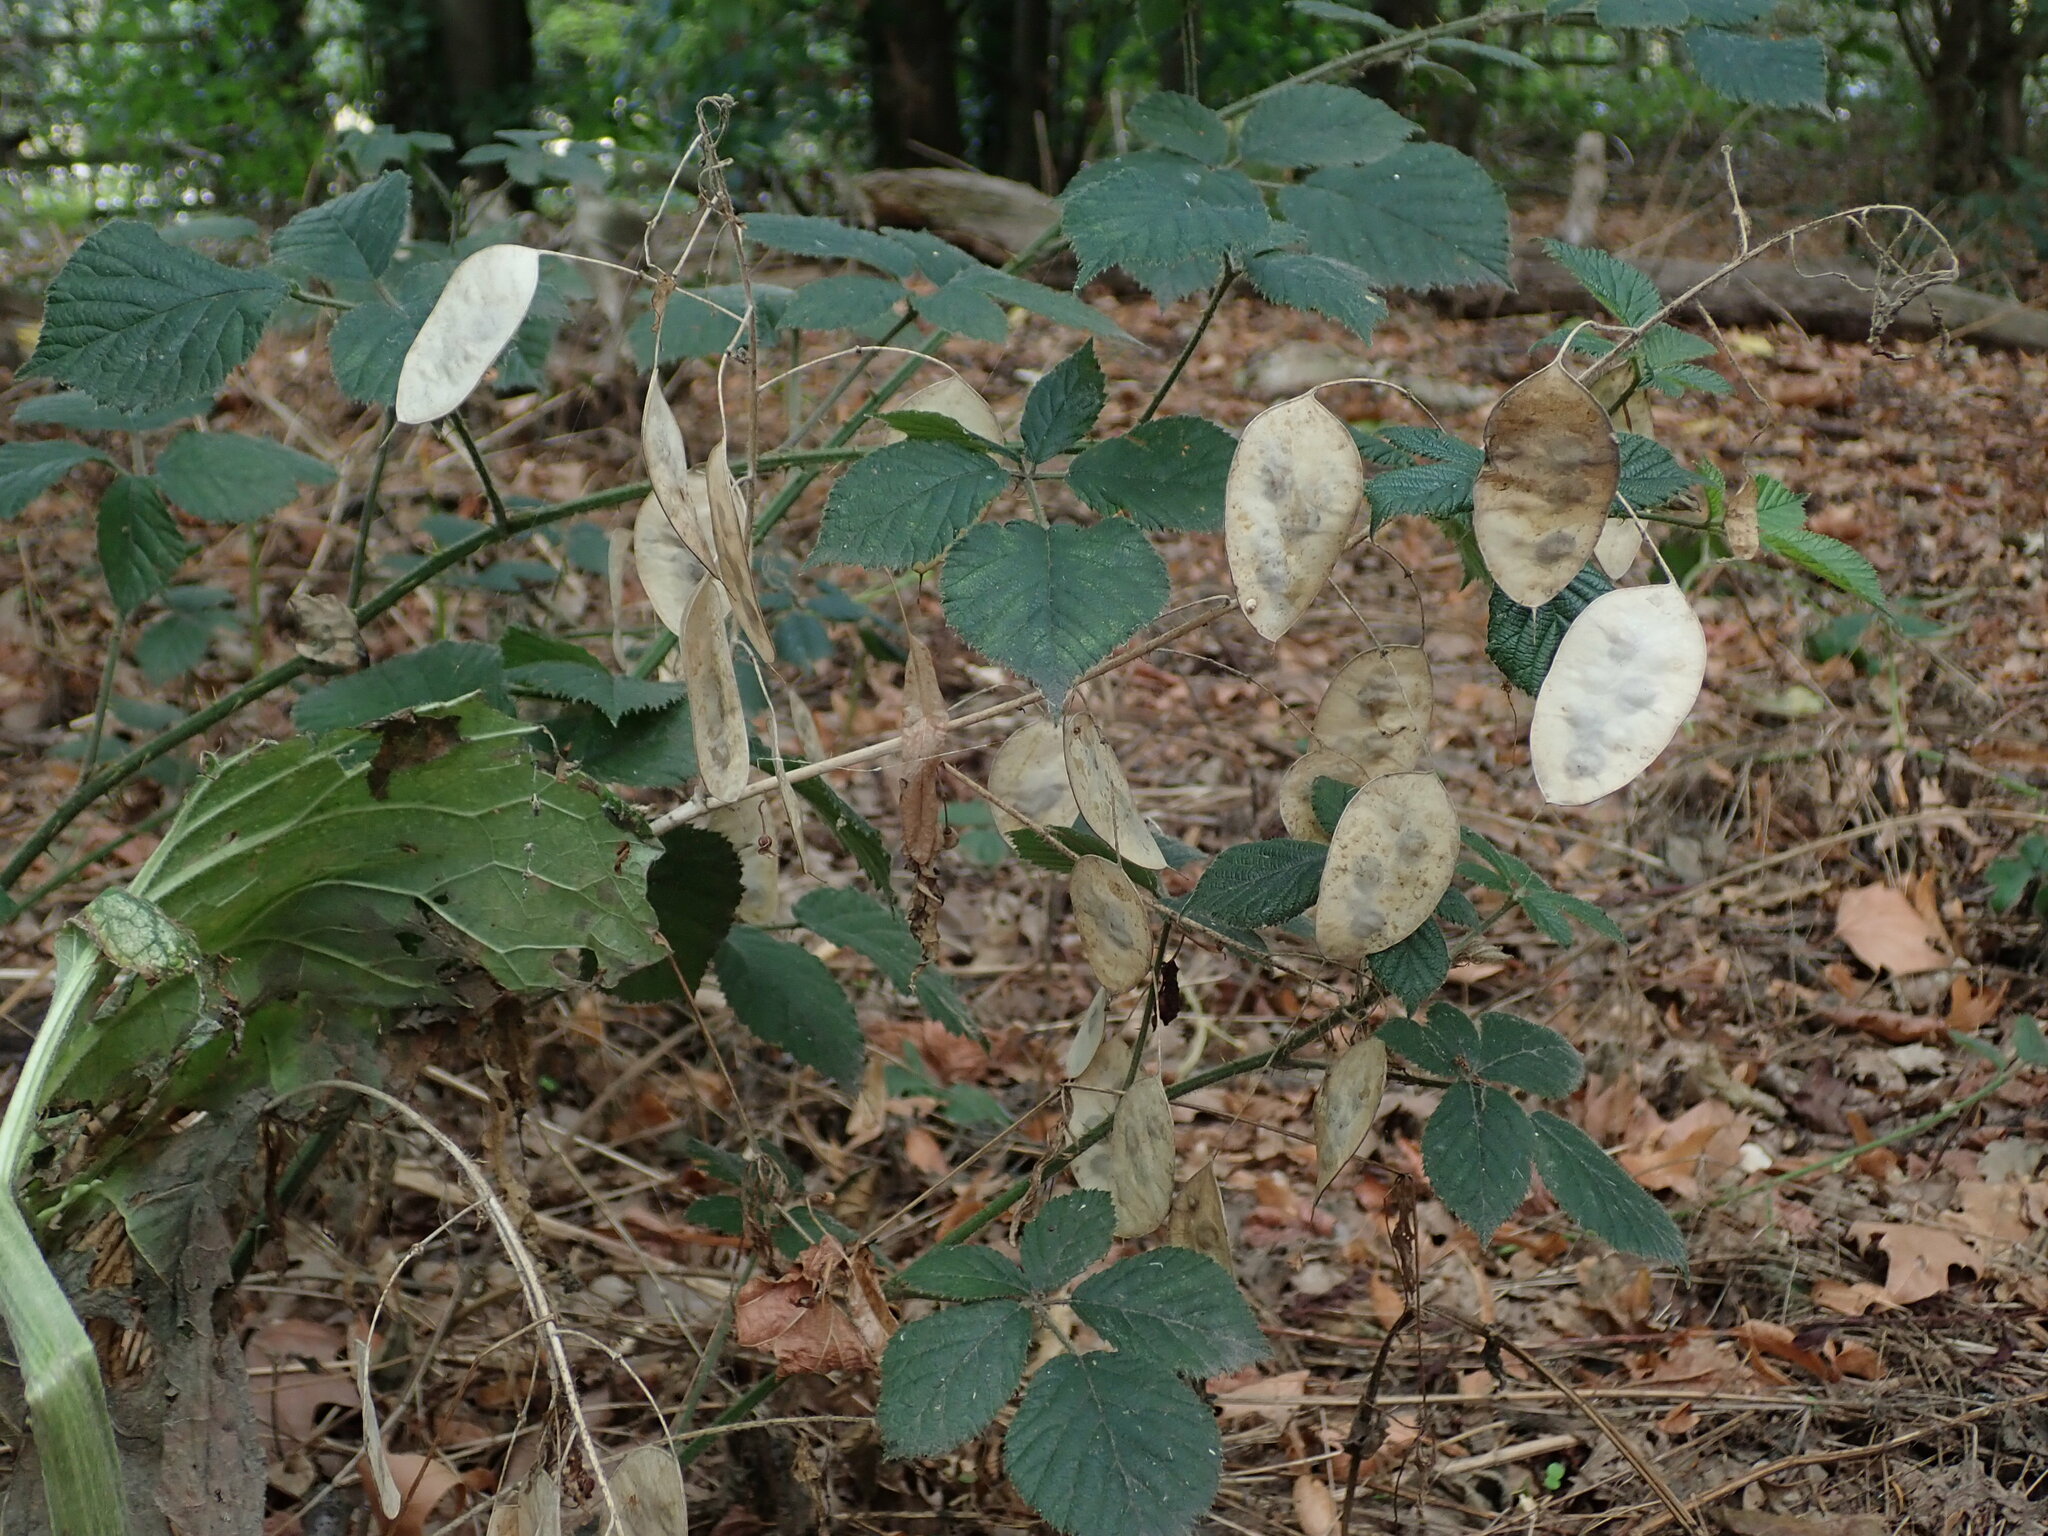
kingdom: Plantae
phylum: Tracheophyta
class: Magnoliopsida
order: Brassicales
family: Brassicaceae
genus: Lunaria
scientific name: Lunaria annua
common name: Honesty
